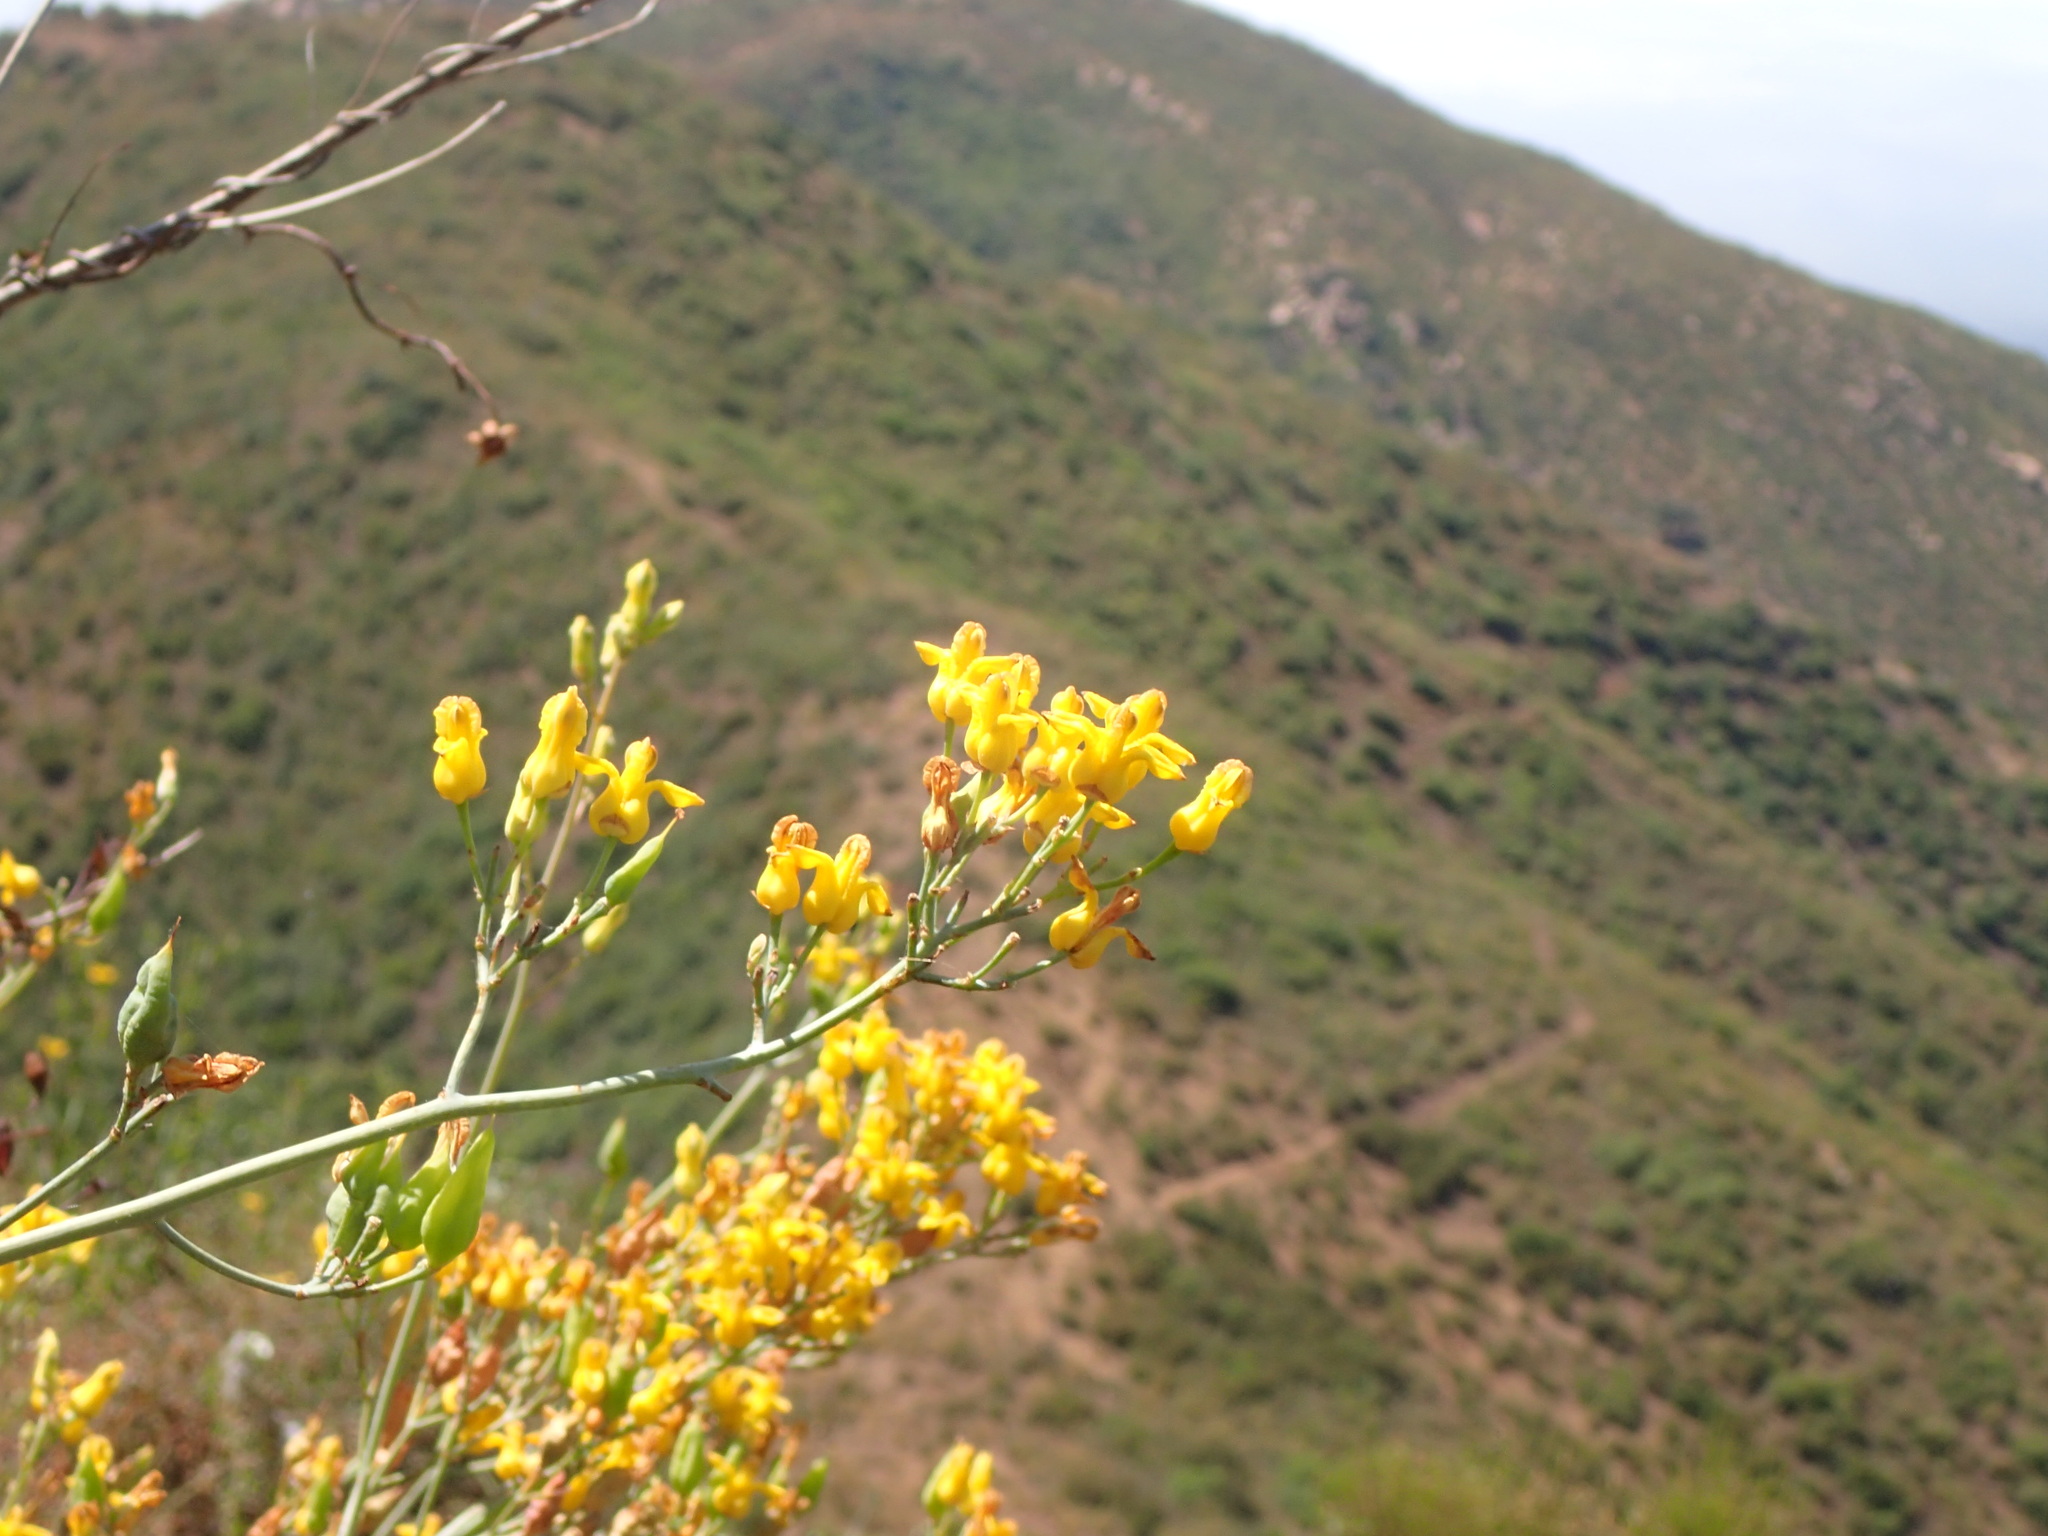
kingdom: Plantae
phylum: Tracheophyta
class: Magnoliopsida
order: Ranunculales
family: Papaveraceae
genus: Ehrendorferia
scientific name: Ehrendorferia chrysantha
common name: Golden eardrops
